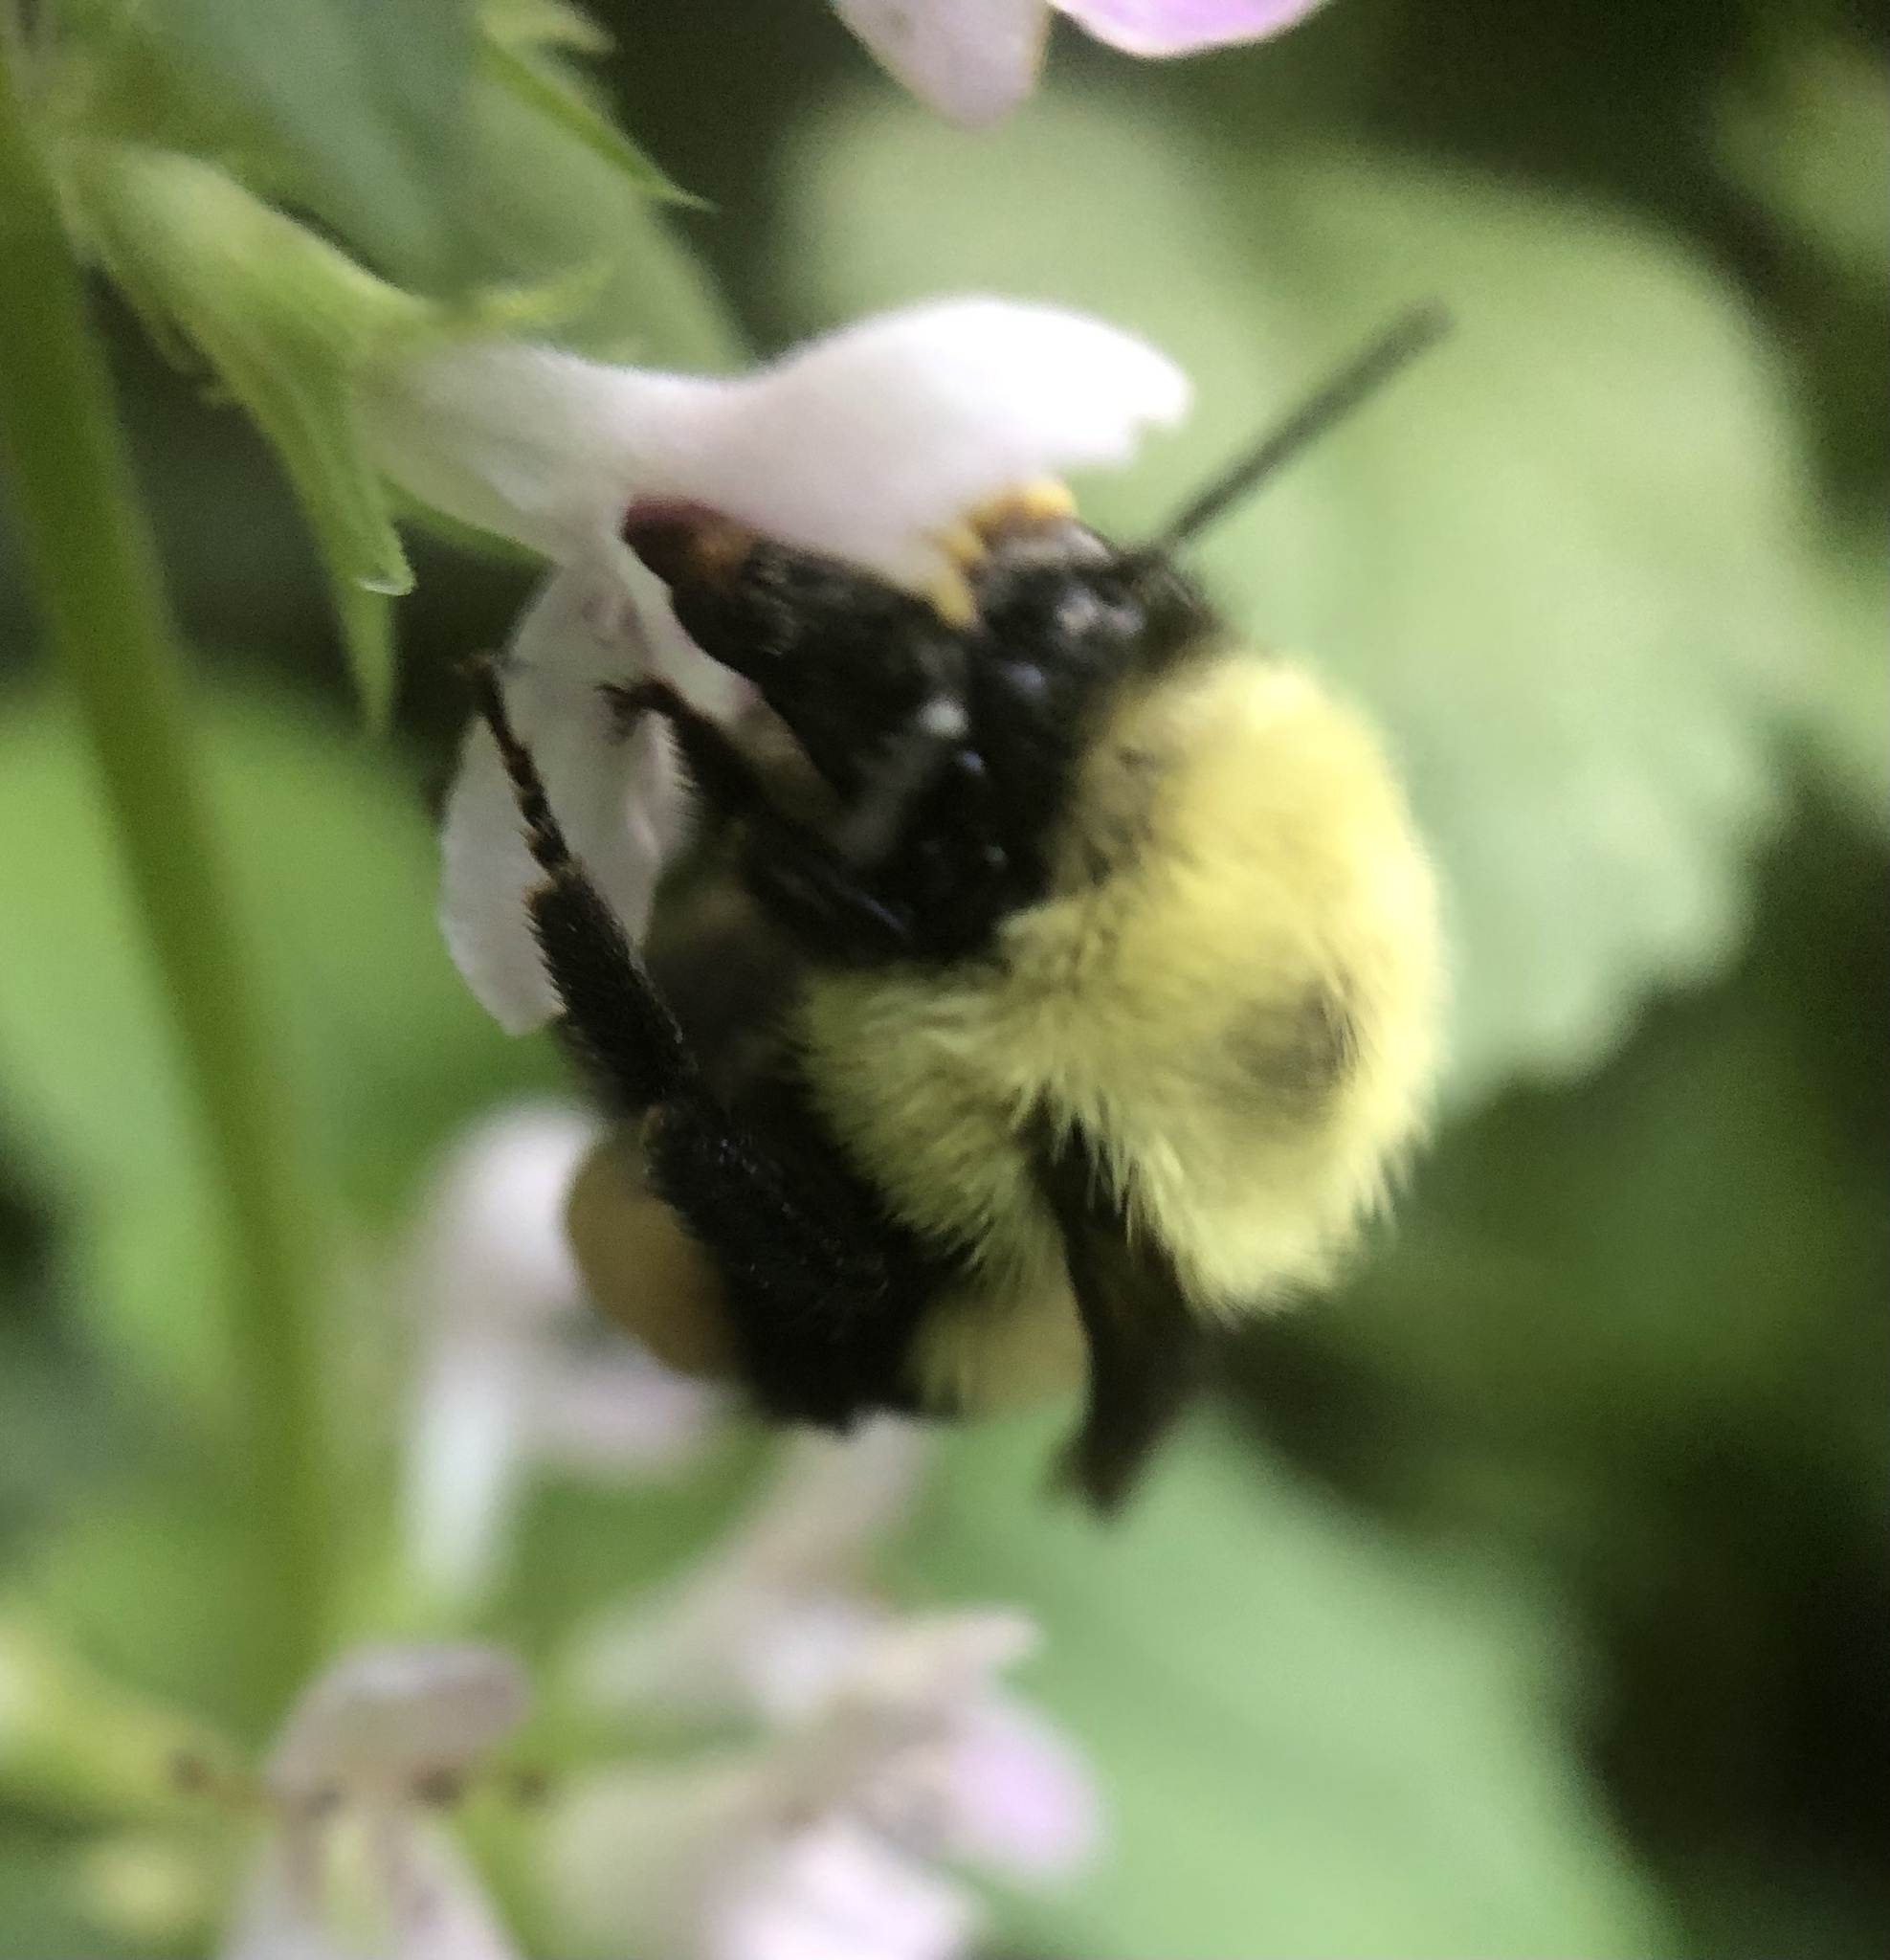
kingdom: Animalia
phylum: Arthropoda
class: Insecta
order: Hymenoptera
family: Apidae
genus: Bombus
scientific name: Bombus bimaculatus
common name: Two-spotted bumble bee
